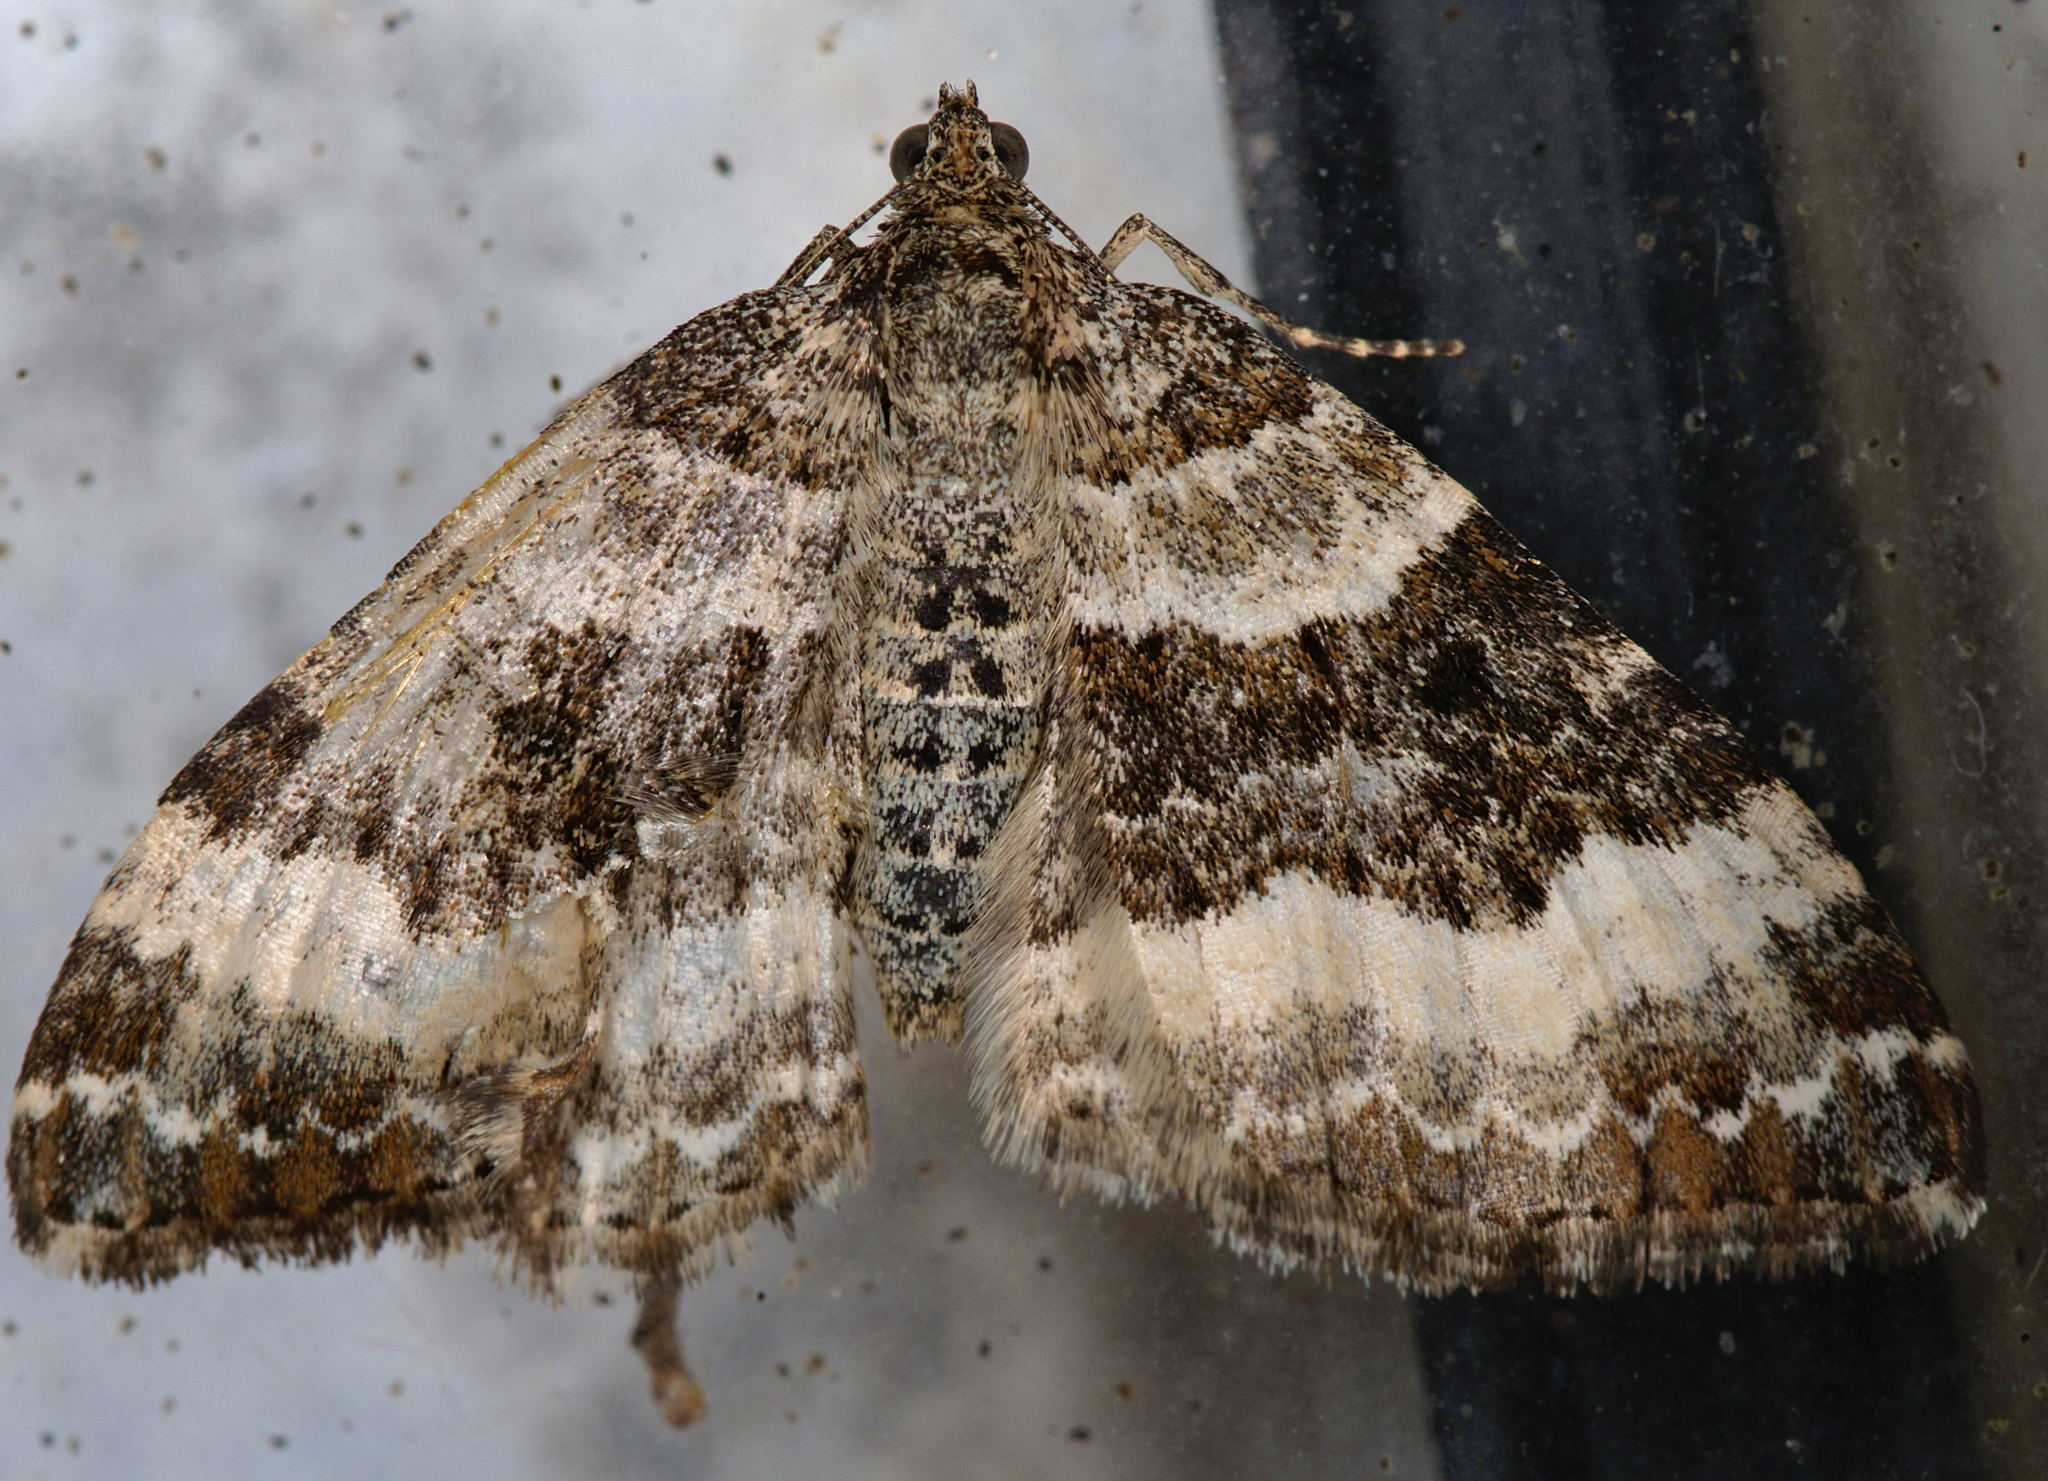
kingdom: Animalia
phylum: Arthropoda
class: Insecta
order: Lepidoptera
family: Geometridae
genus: Epirrhoe
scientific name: Epirrhoe rivata
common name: Wood carpet
